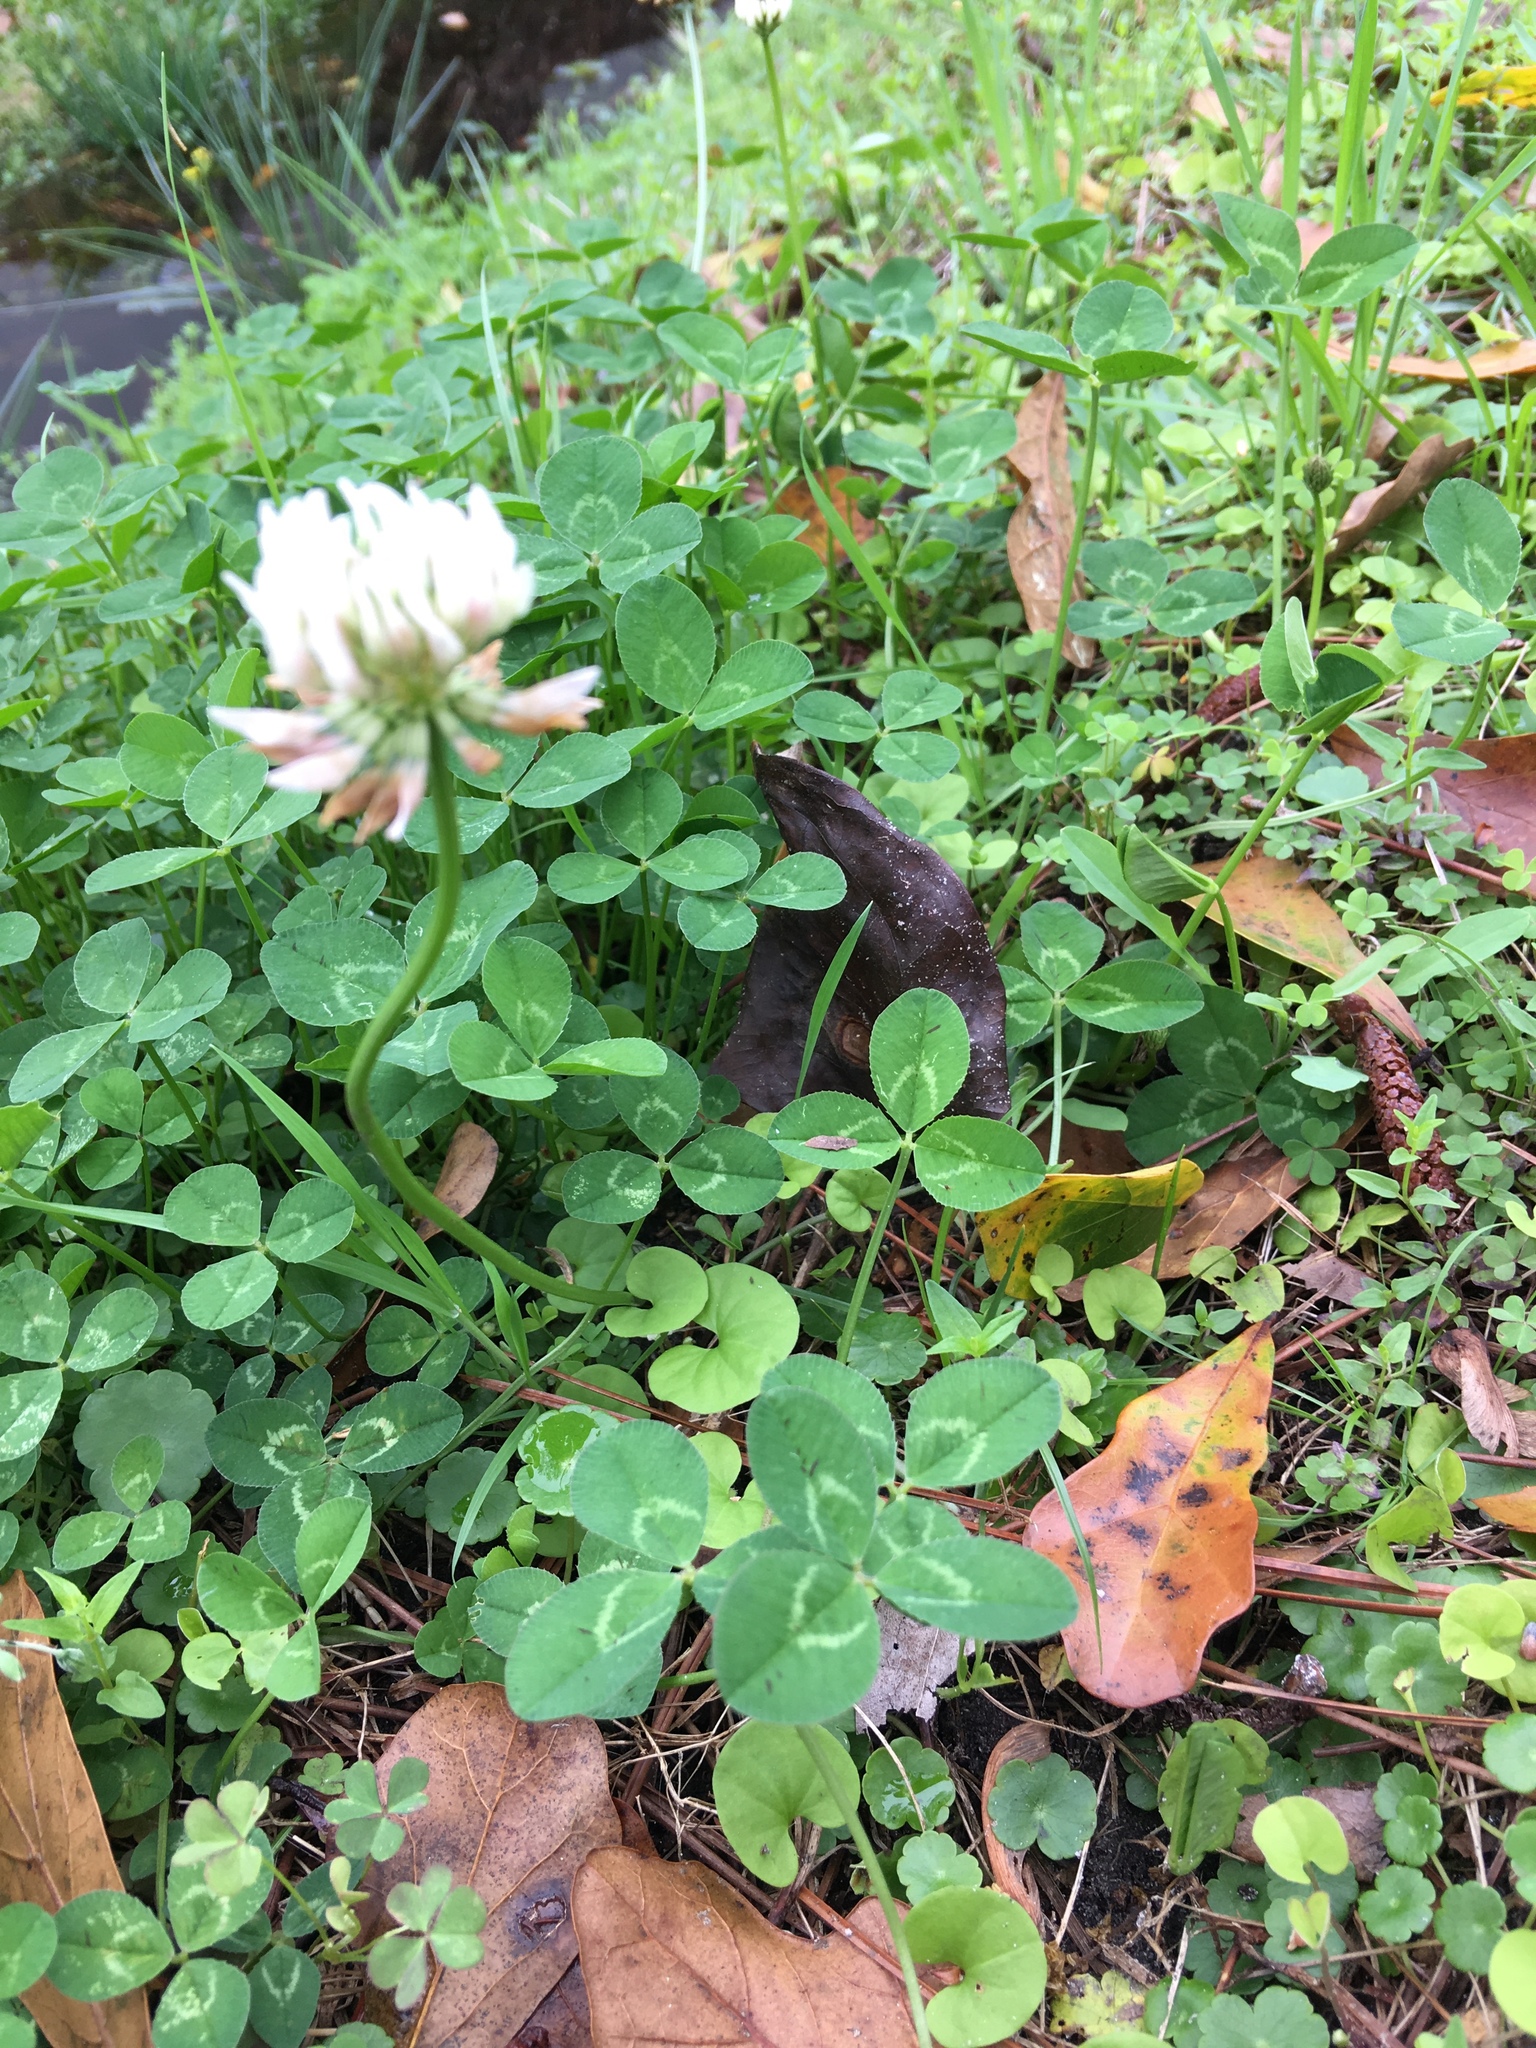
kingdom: Plantae
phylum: Tracheophyta
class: Magnoliopsida
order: Fabales
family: Fabaceae
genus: Trifolium
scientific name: Trifolium repens
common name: White clover
